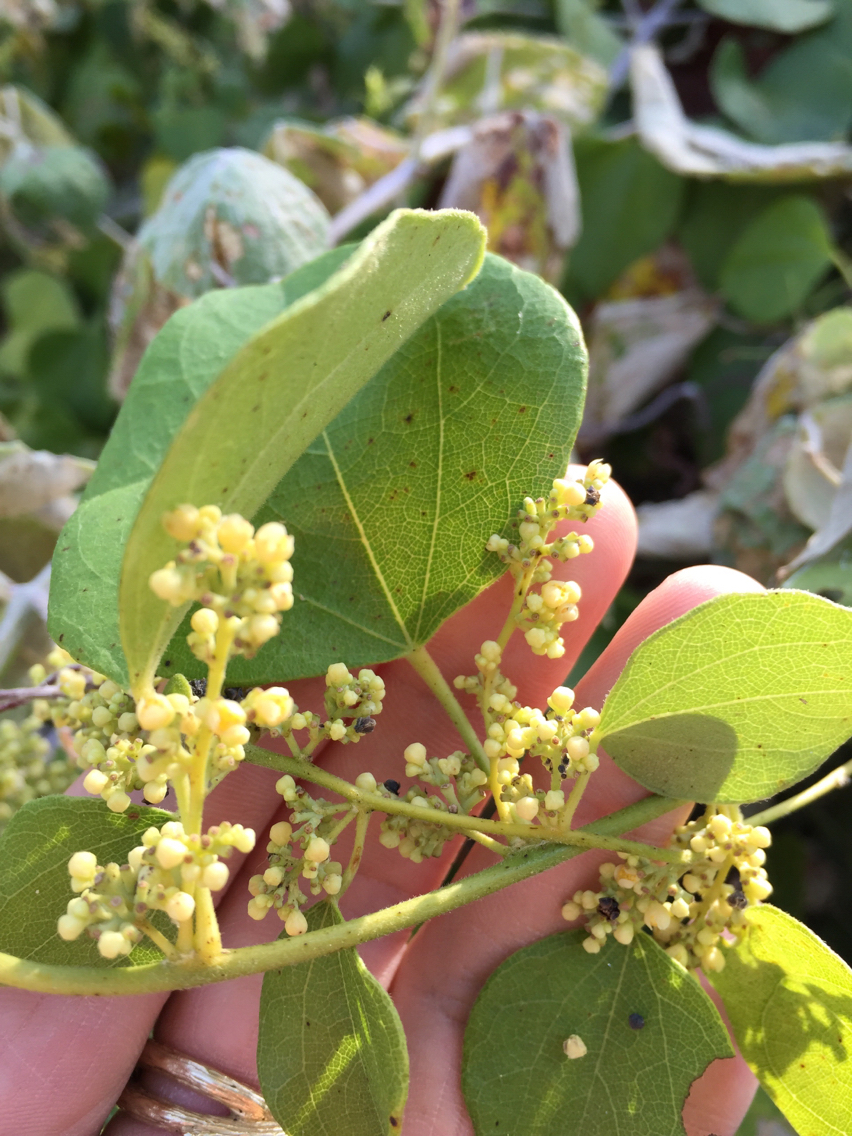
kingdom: Plantae
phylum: Tracheophyta
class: Magnoliopsida
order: Ranunculales
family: Menispermaceae
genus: Cocculus
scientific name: Cocculus carolinus
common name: Carolina moonseed
